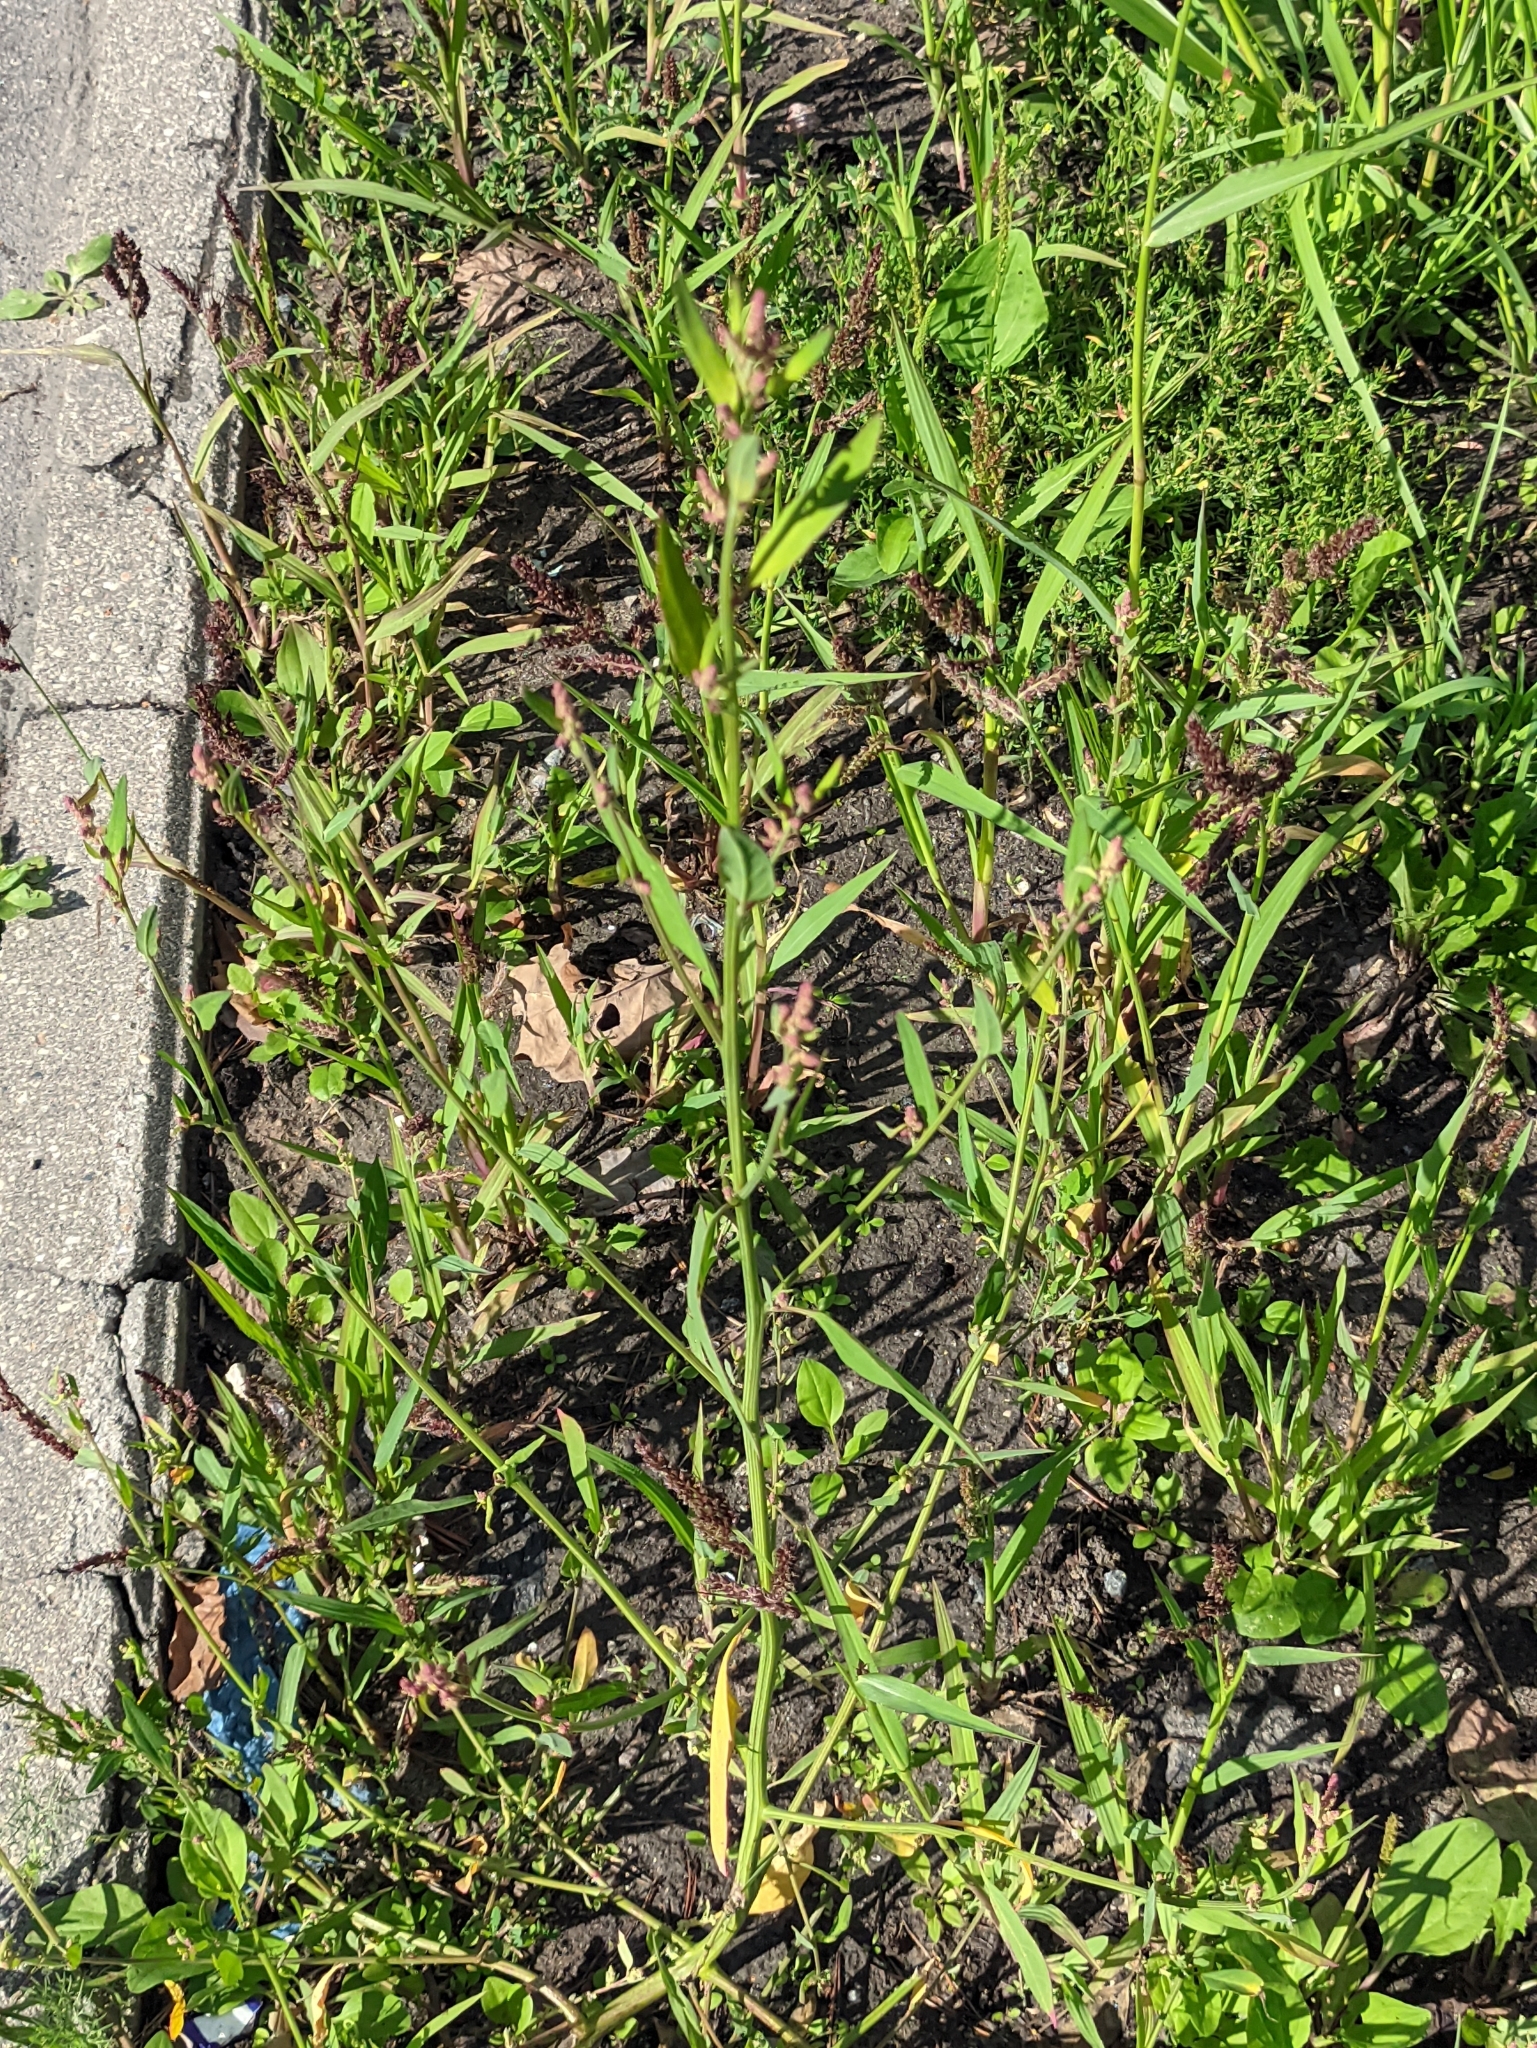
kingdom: Plantae
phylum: Tracheophyta
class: Magnoliopsida
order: Caryophyllales
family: Amaranthaceae
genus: Atriplex
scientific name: Atriplex patula
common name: Common orache
